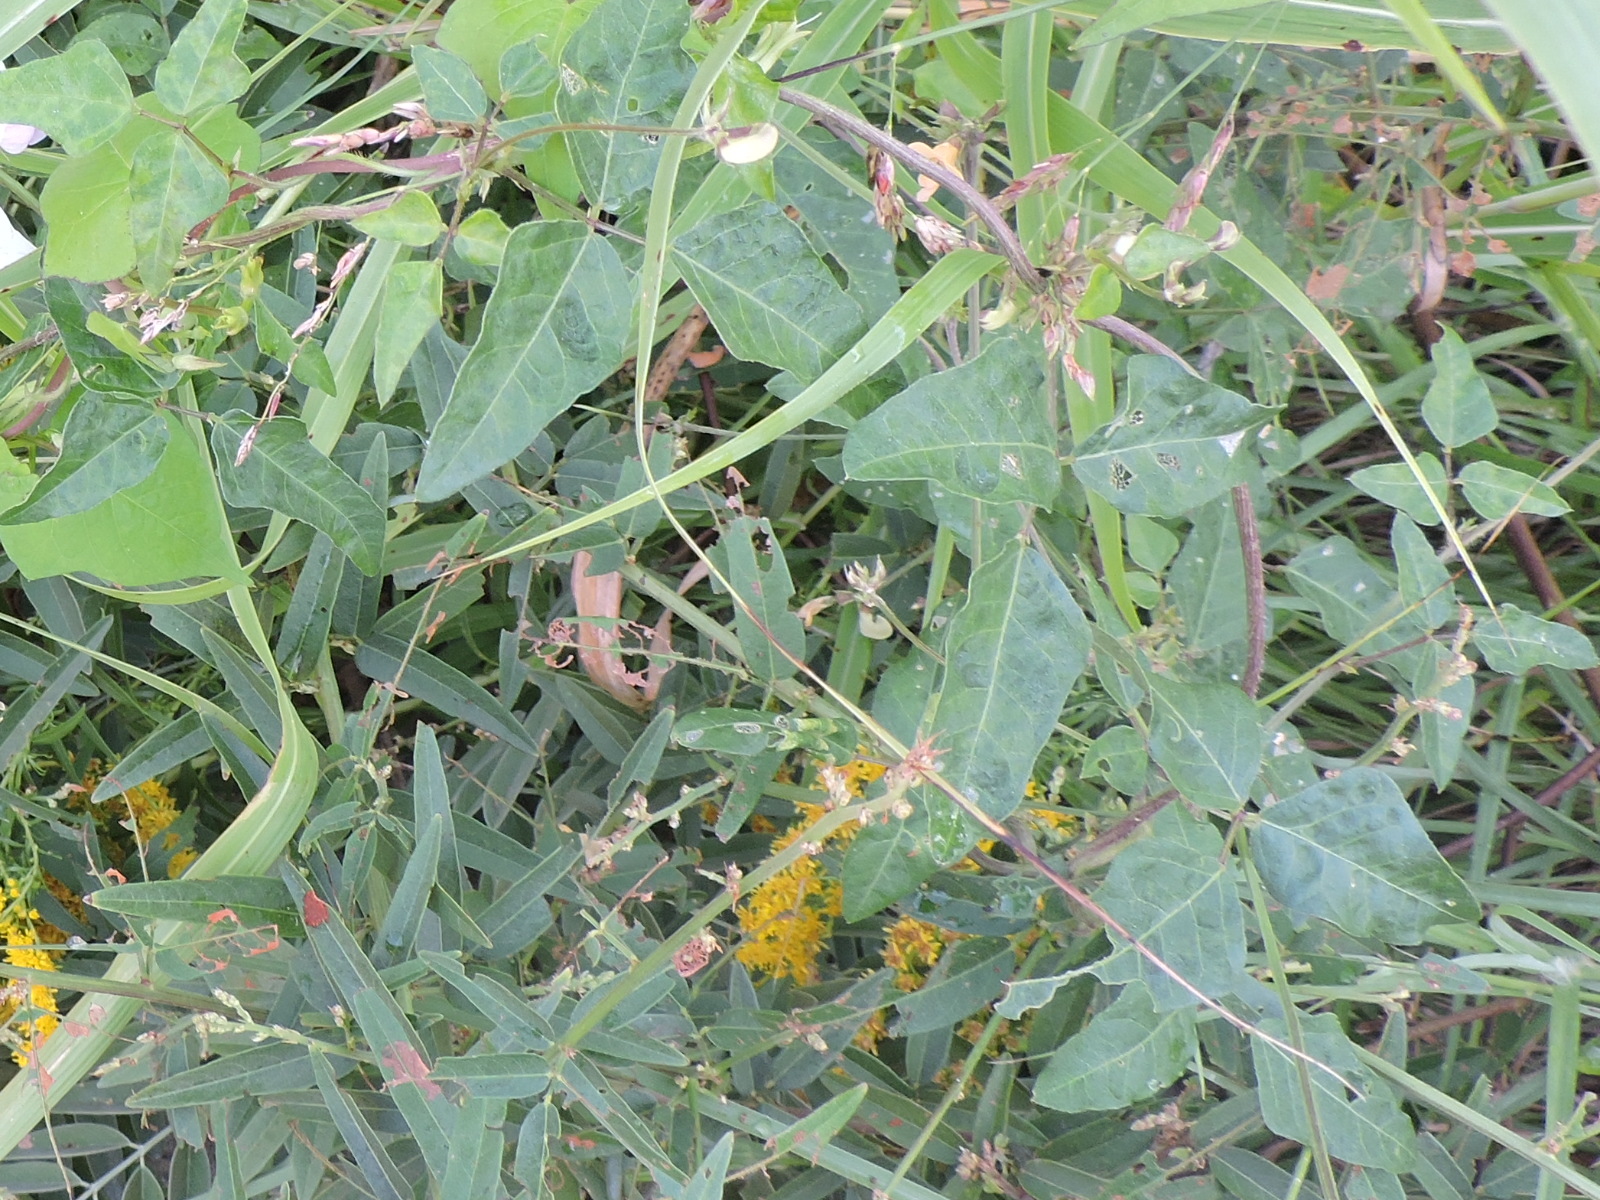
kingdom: Plantae
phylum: Tracheophyta
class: Magnoliopsida
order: Fabales
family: Fabaceae
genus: Strophostyles
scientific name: Strophostyles helvola
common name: Trailing wild bean
